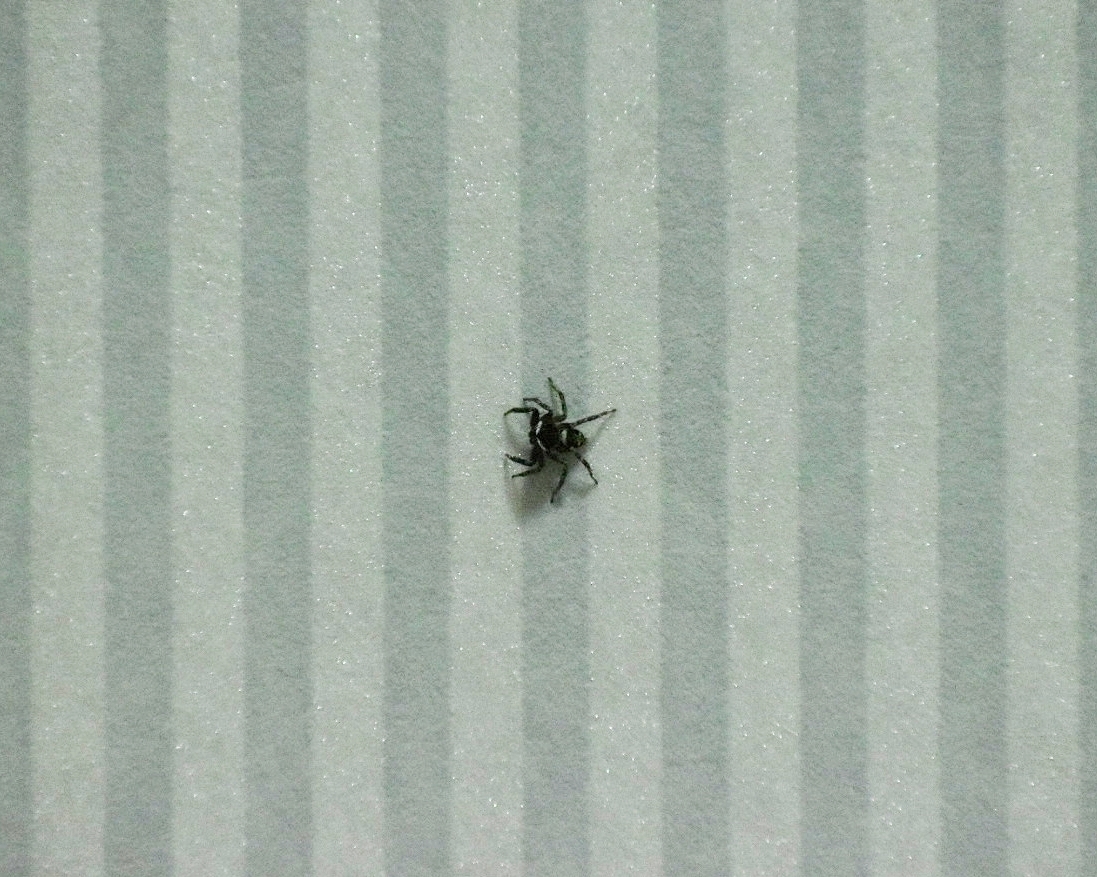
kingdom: Animalia
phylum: Arthropoda
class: Arachnida
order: Araneae
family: Salticidae
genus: Hasarius
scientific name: Hasarius adansoni
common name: Jumping spider
